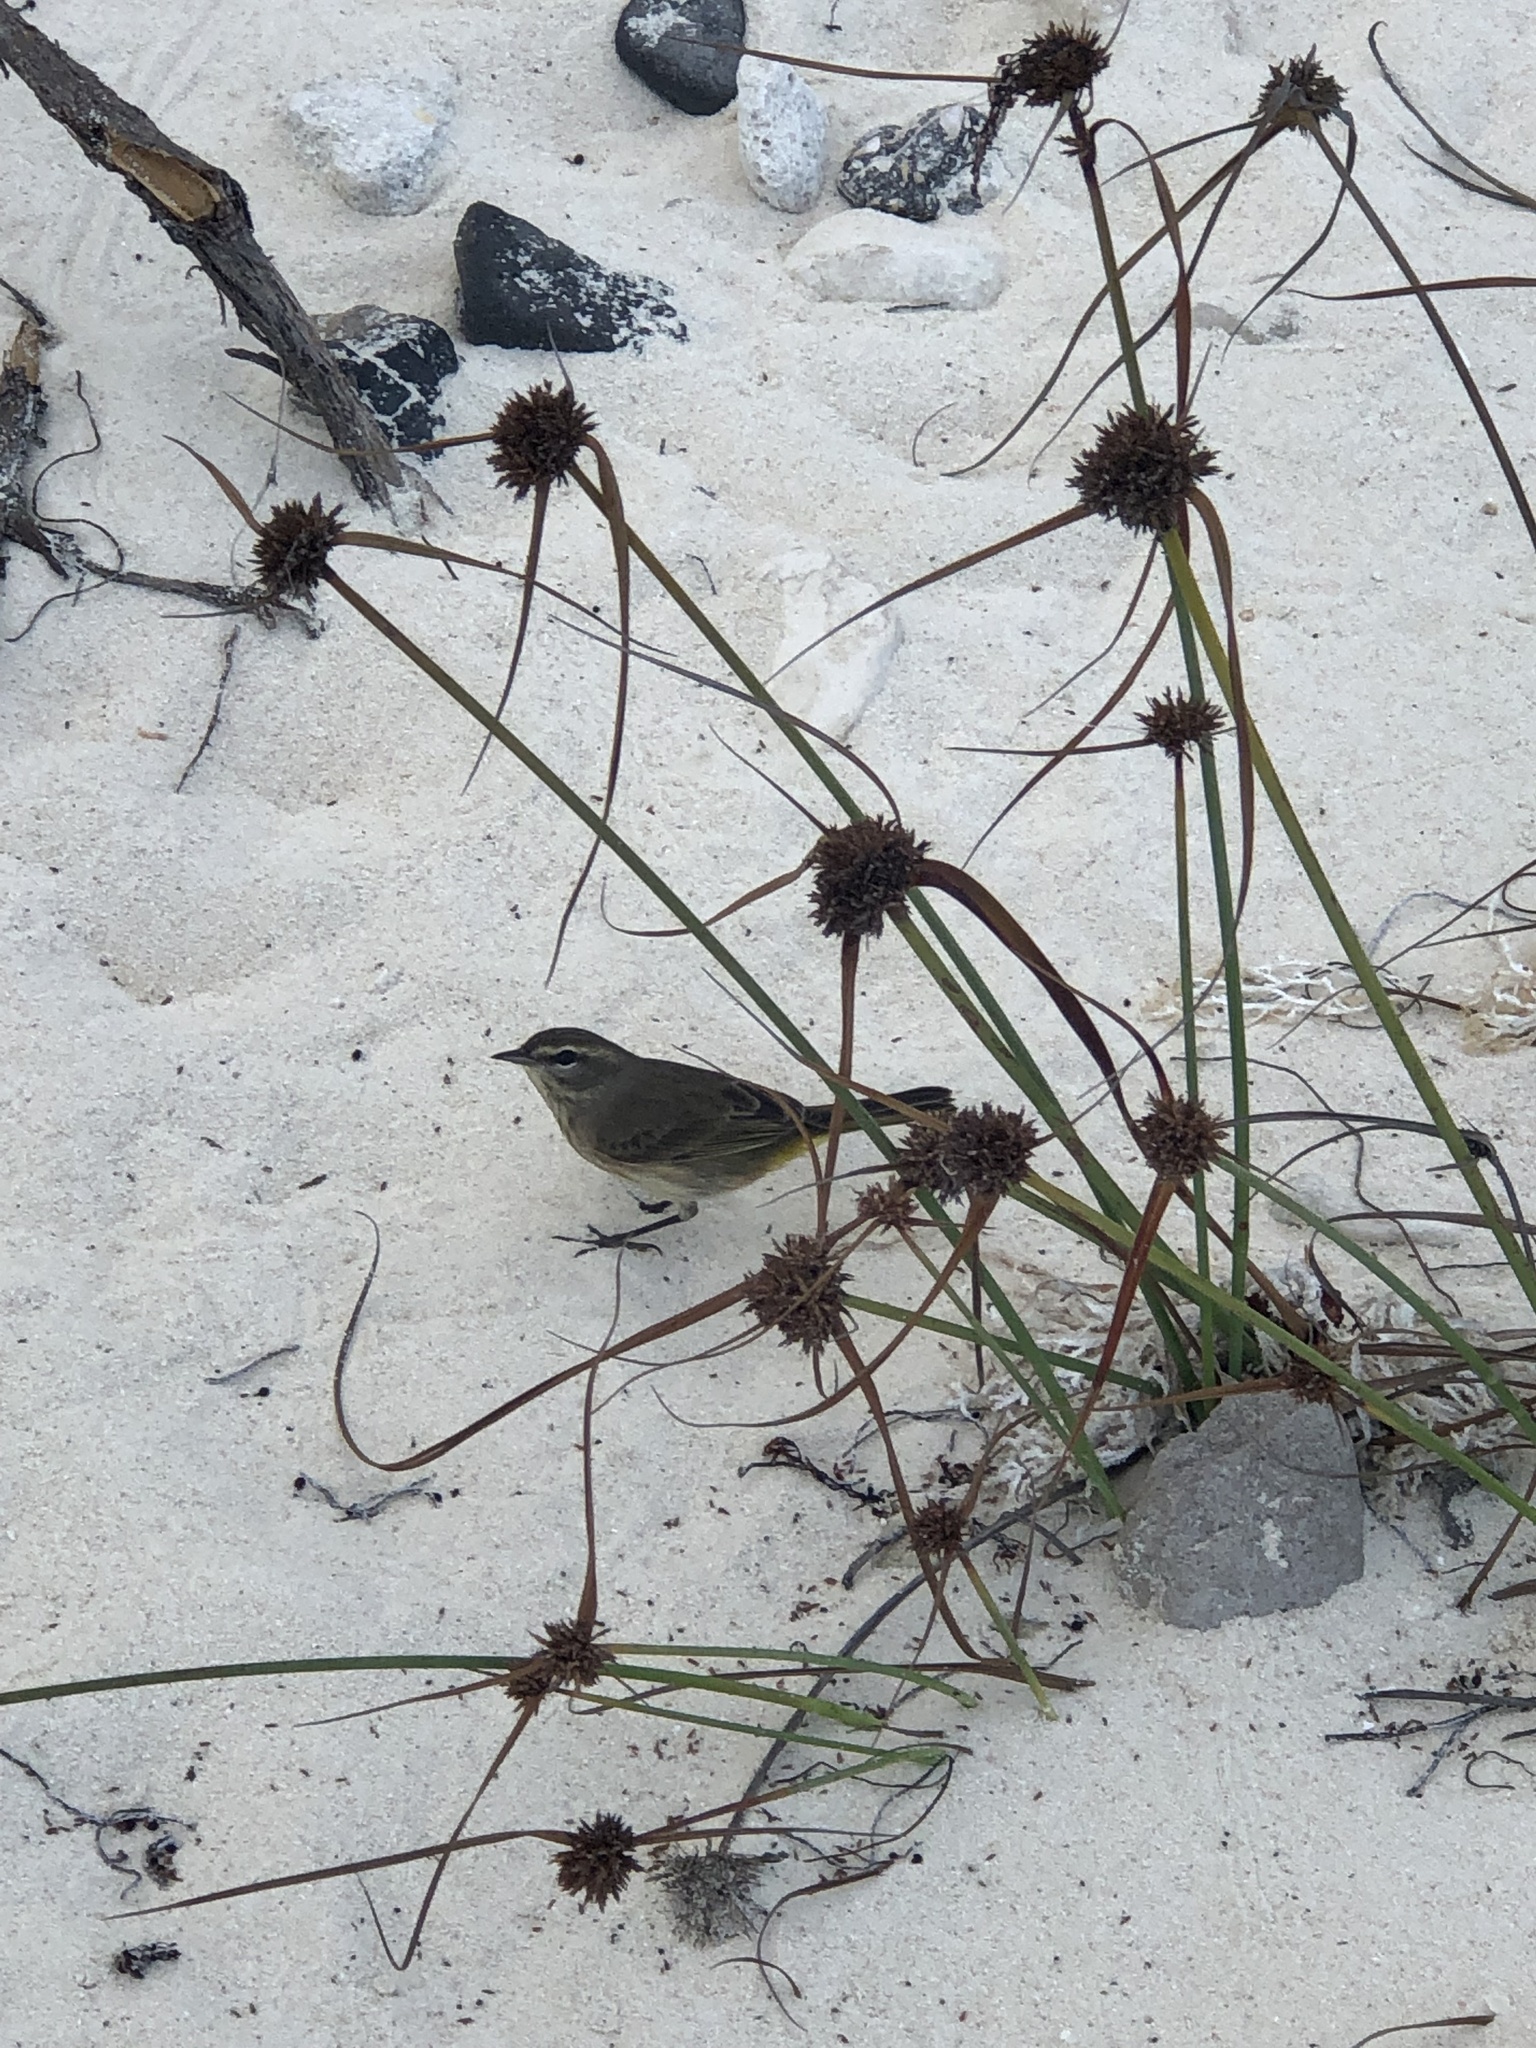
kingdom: Animalia
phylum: Chordata
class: Aves
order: Passeriformes
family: Parulidae
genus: Setophaga
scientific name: Setophaga palmarum
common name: Palm warbler
